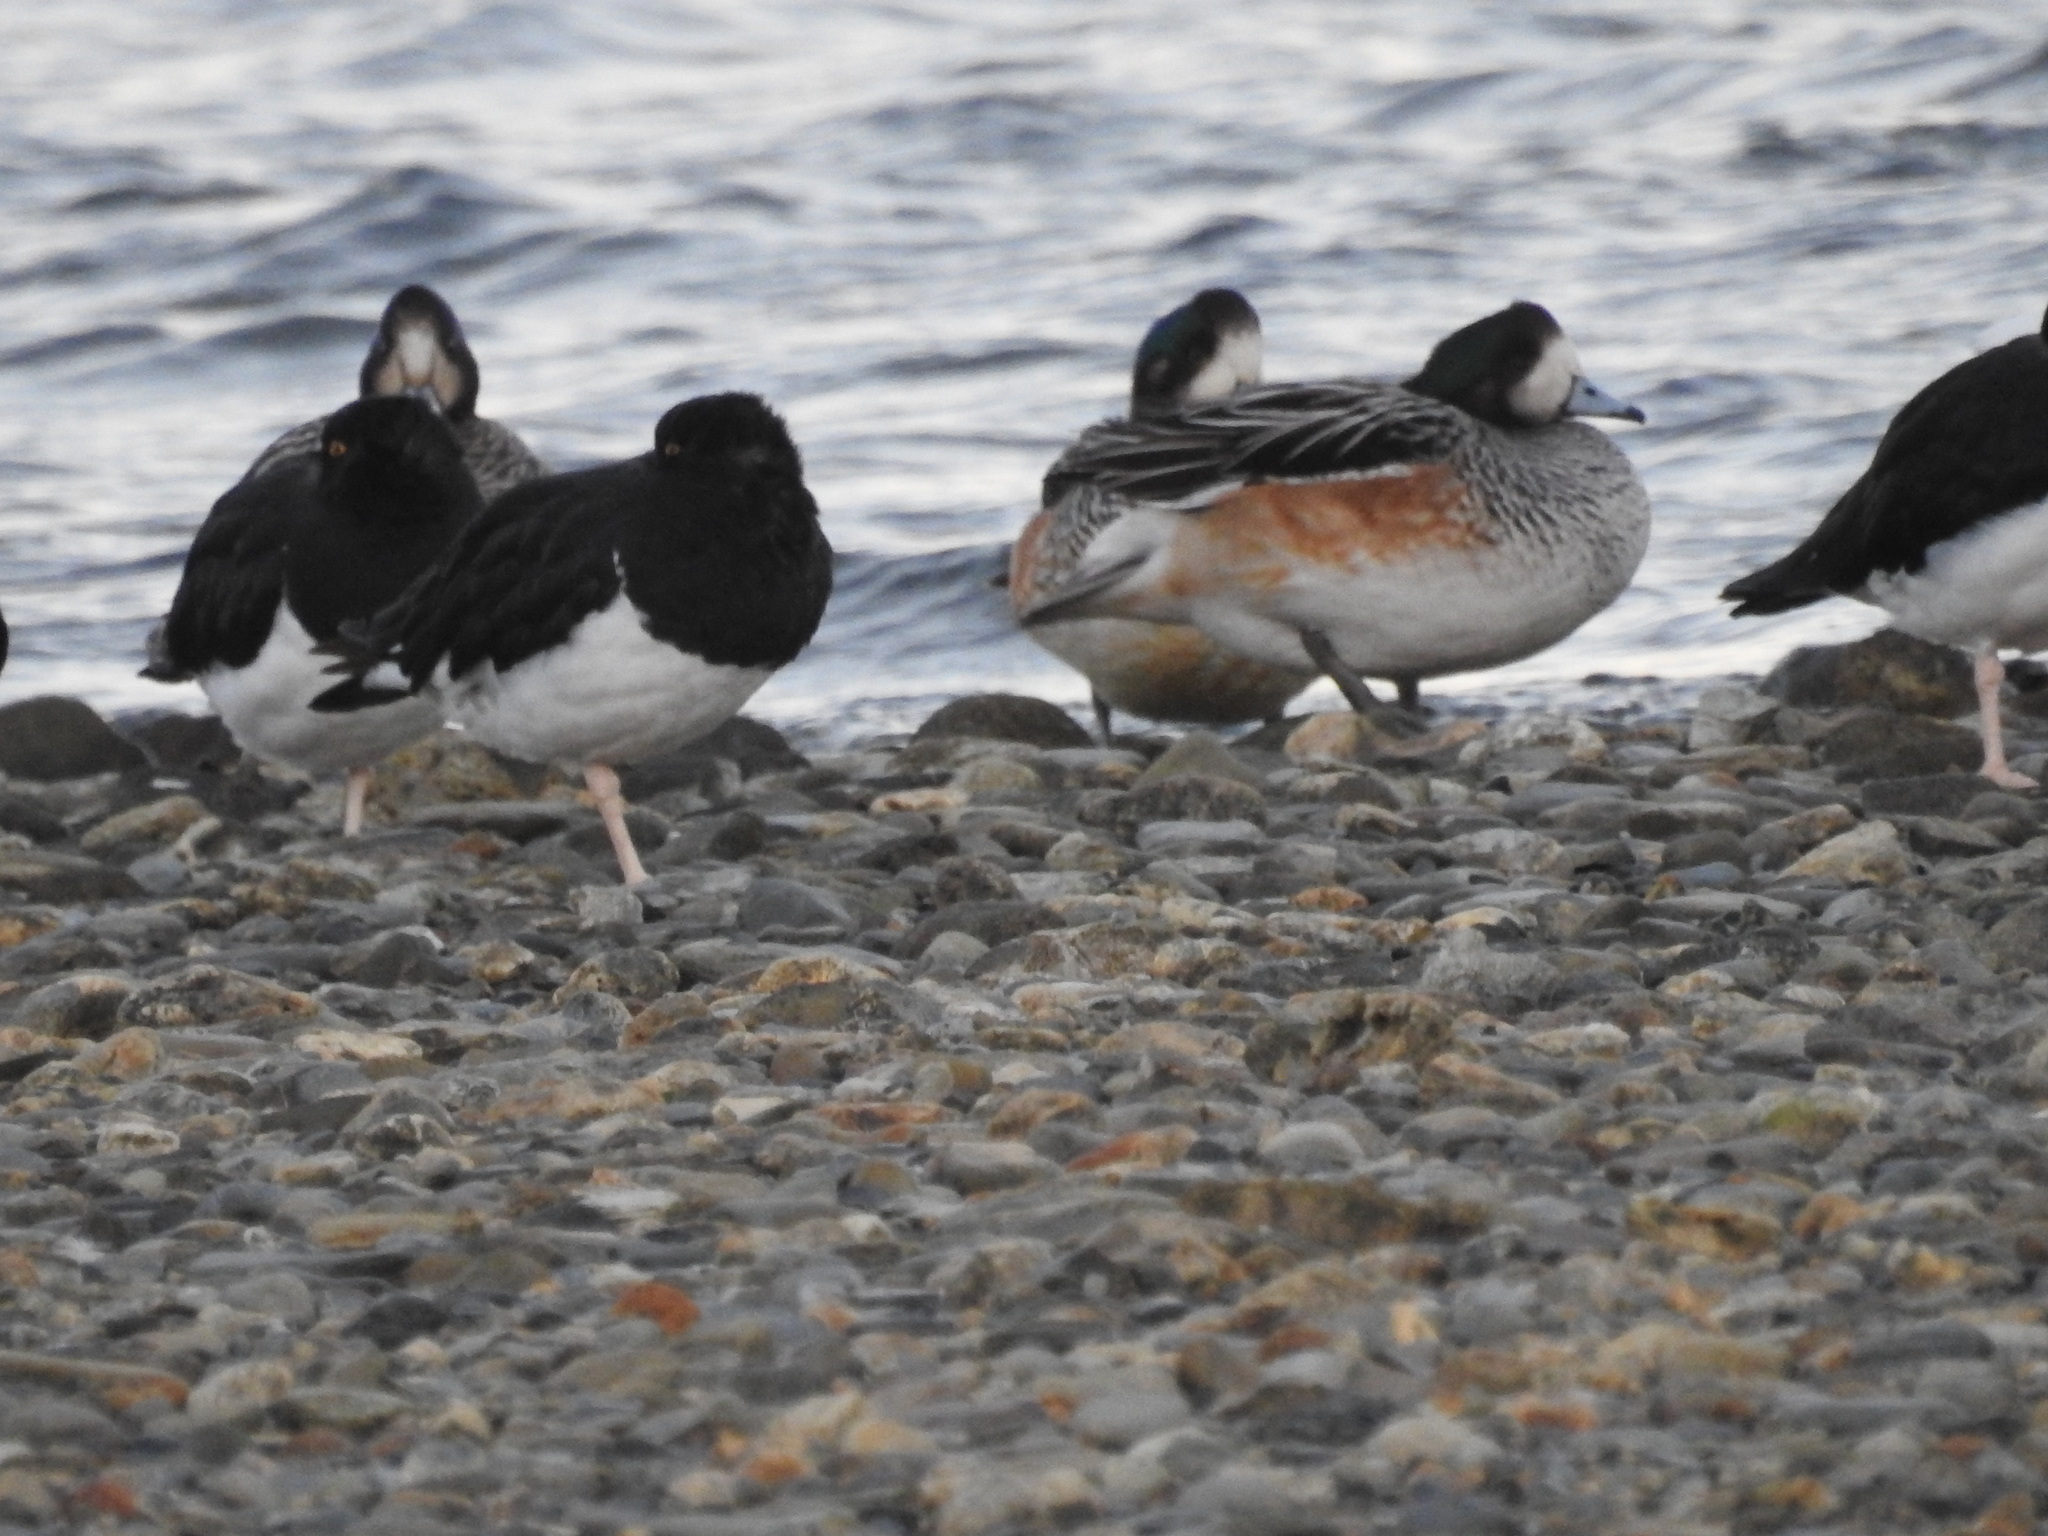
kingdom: Animalia
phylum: Chordata
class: Aves
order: Anseriformes
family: Anatidae
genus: Mareca
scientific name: Mareca sibilatrix
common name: Chiloe wigeon
